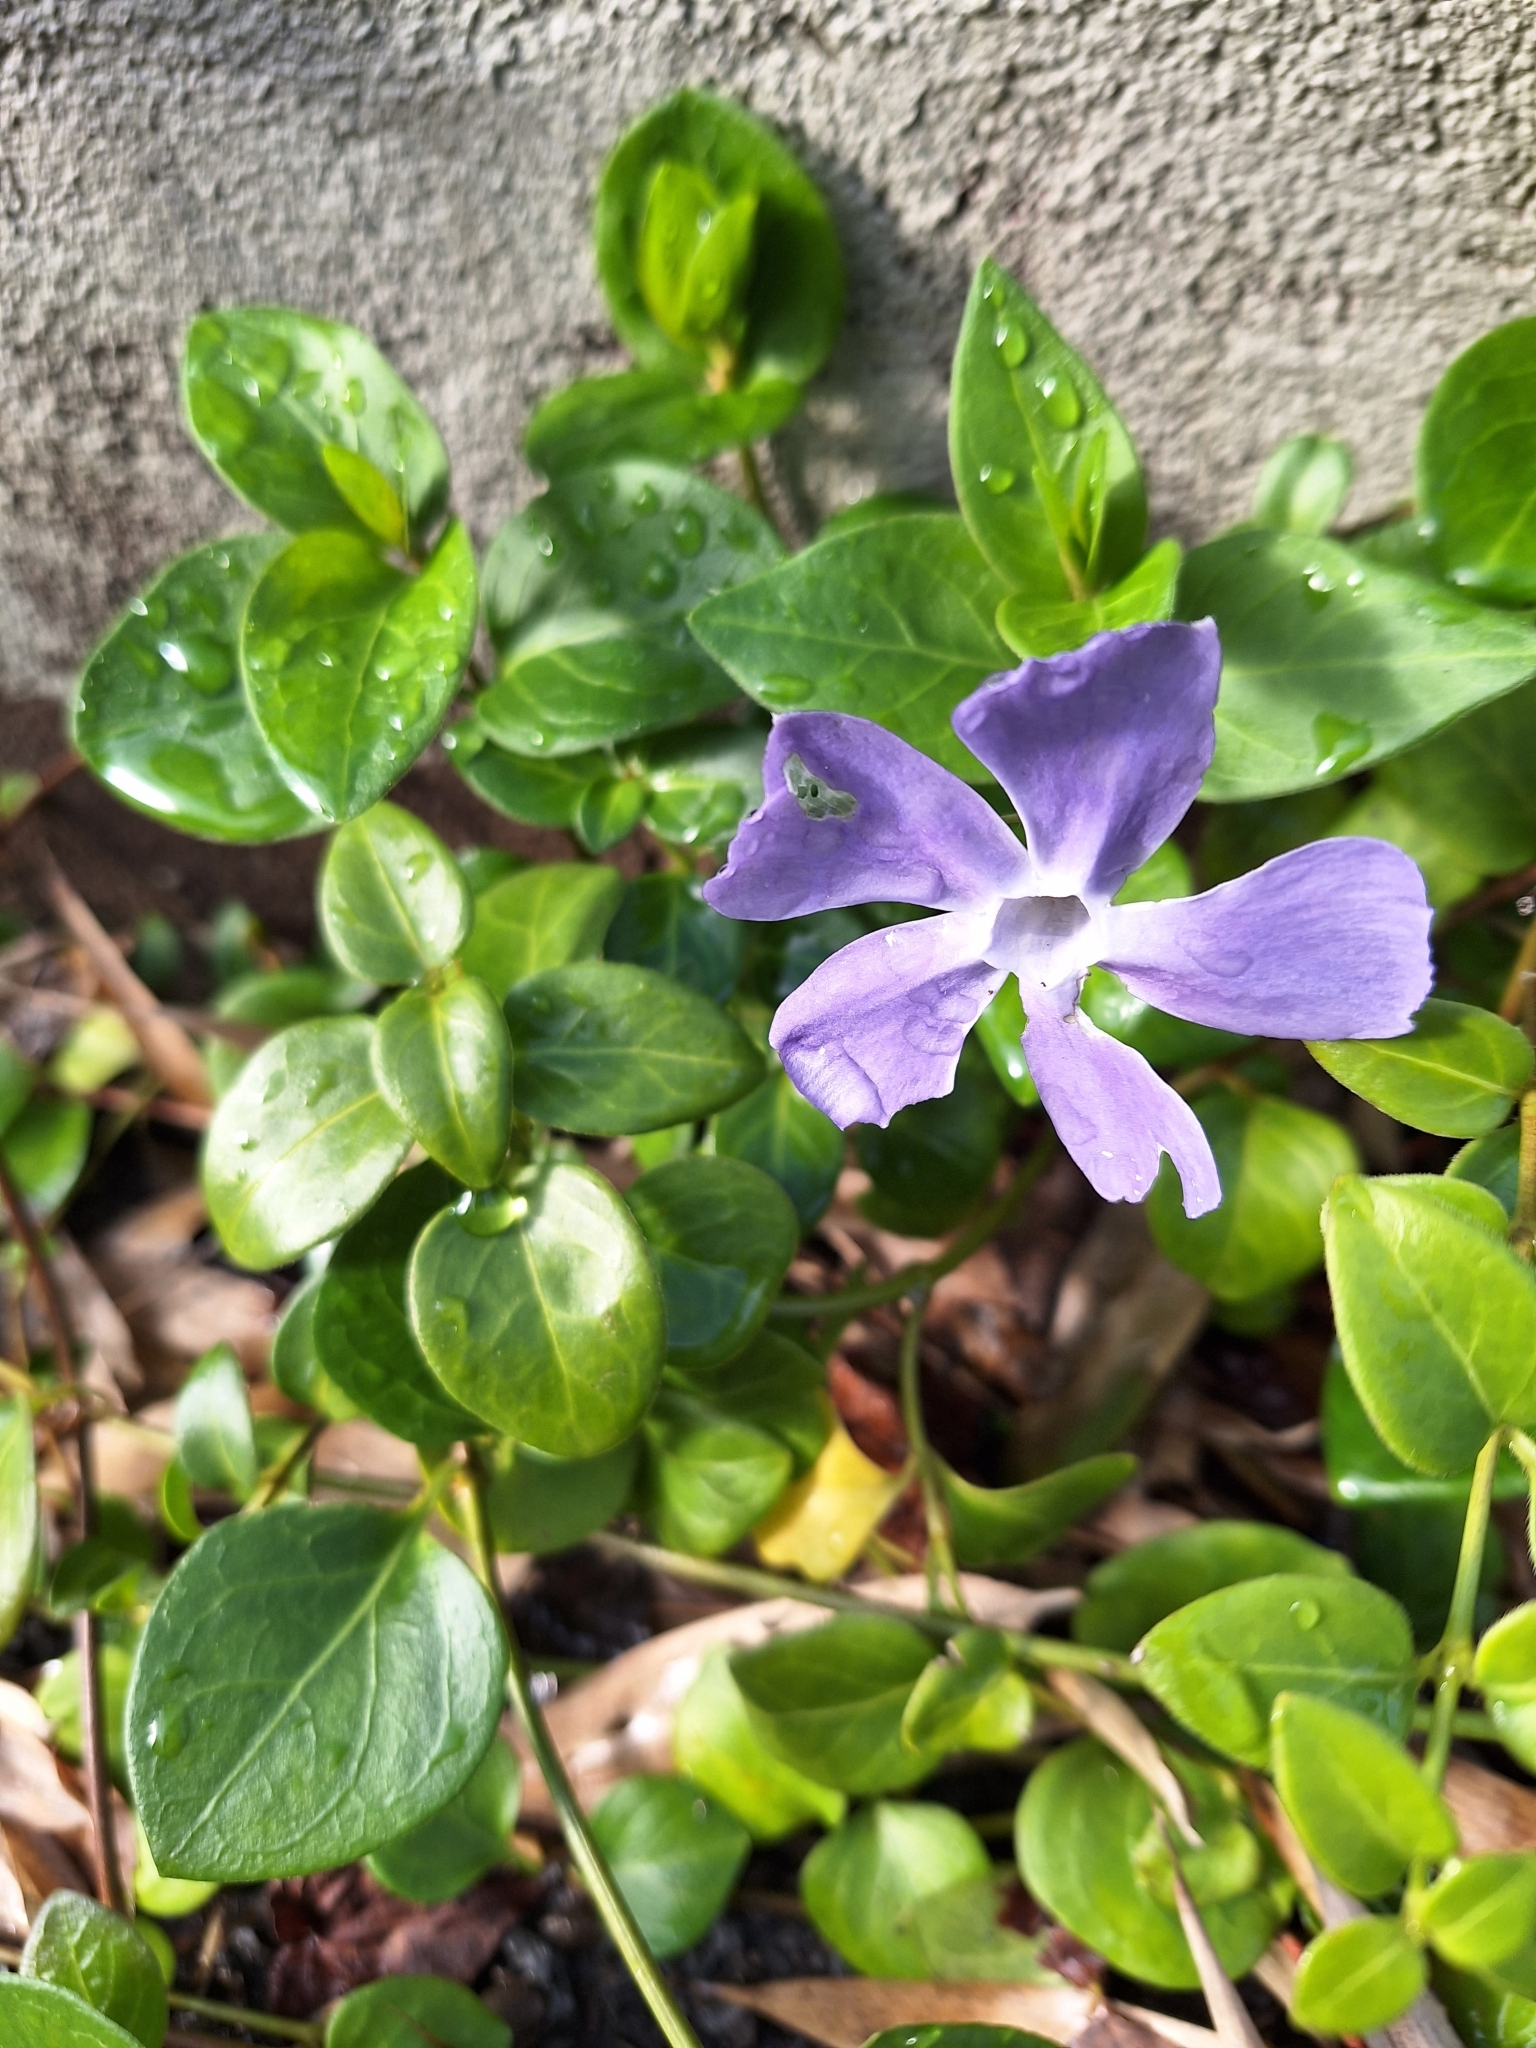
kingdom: Plantae
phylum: Tracheophyta
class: Magnoliopsida
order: Gentianales
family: Apocynaceae
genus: Vinca
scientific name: Vinca major
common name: Greater periwinkle
